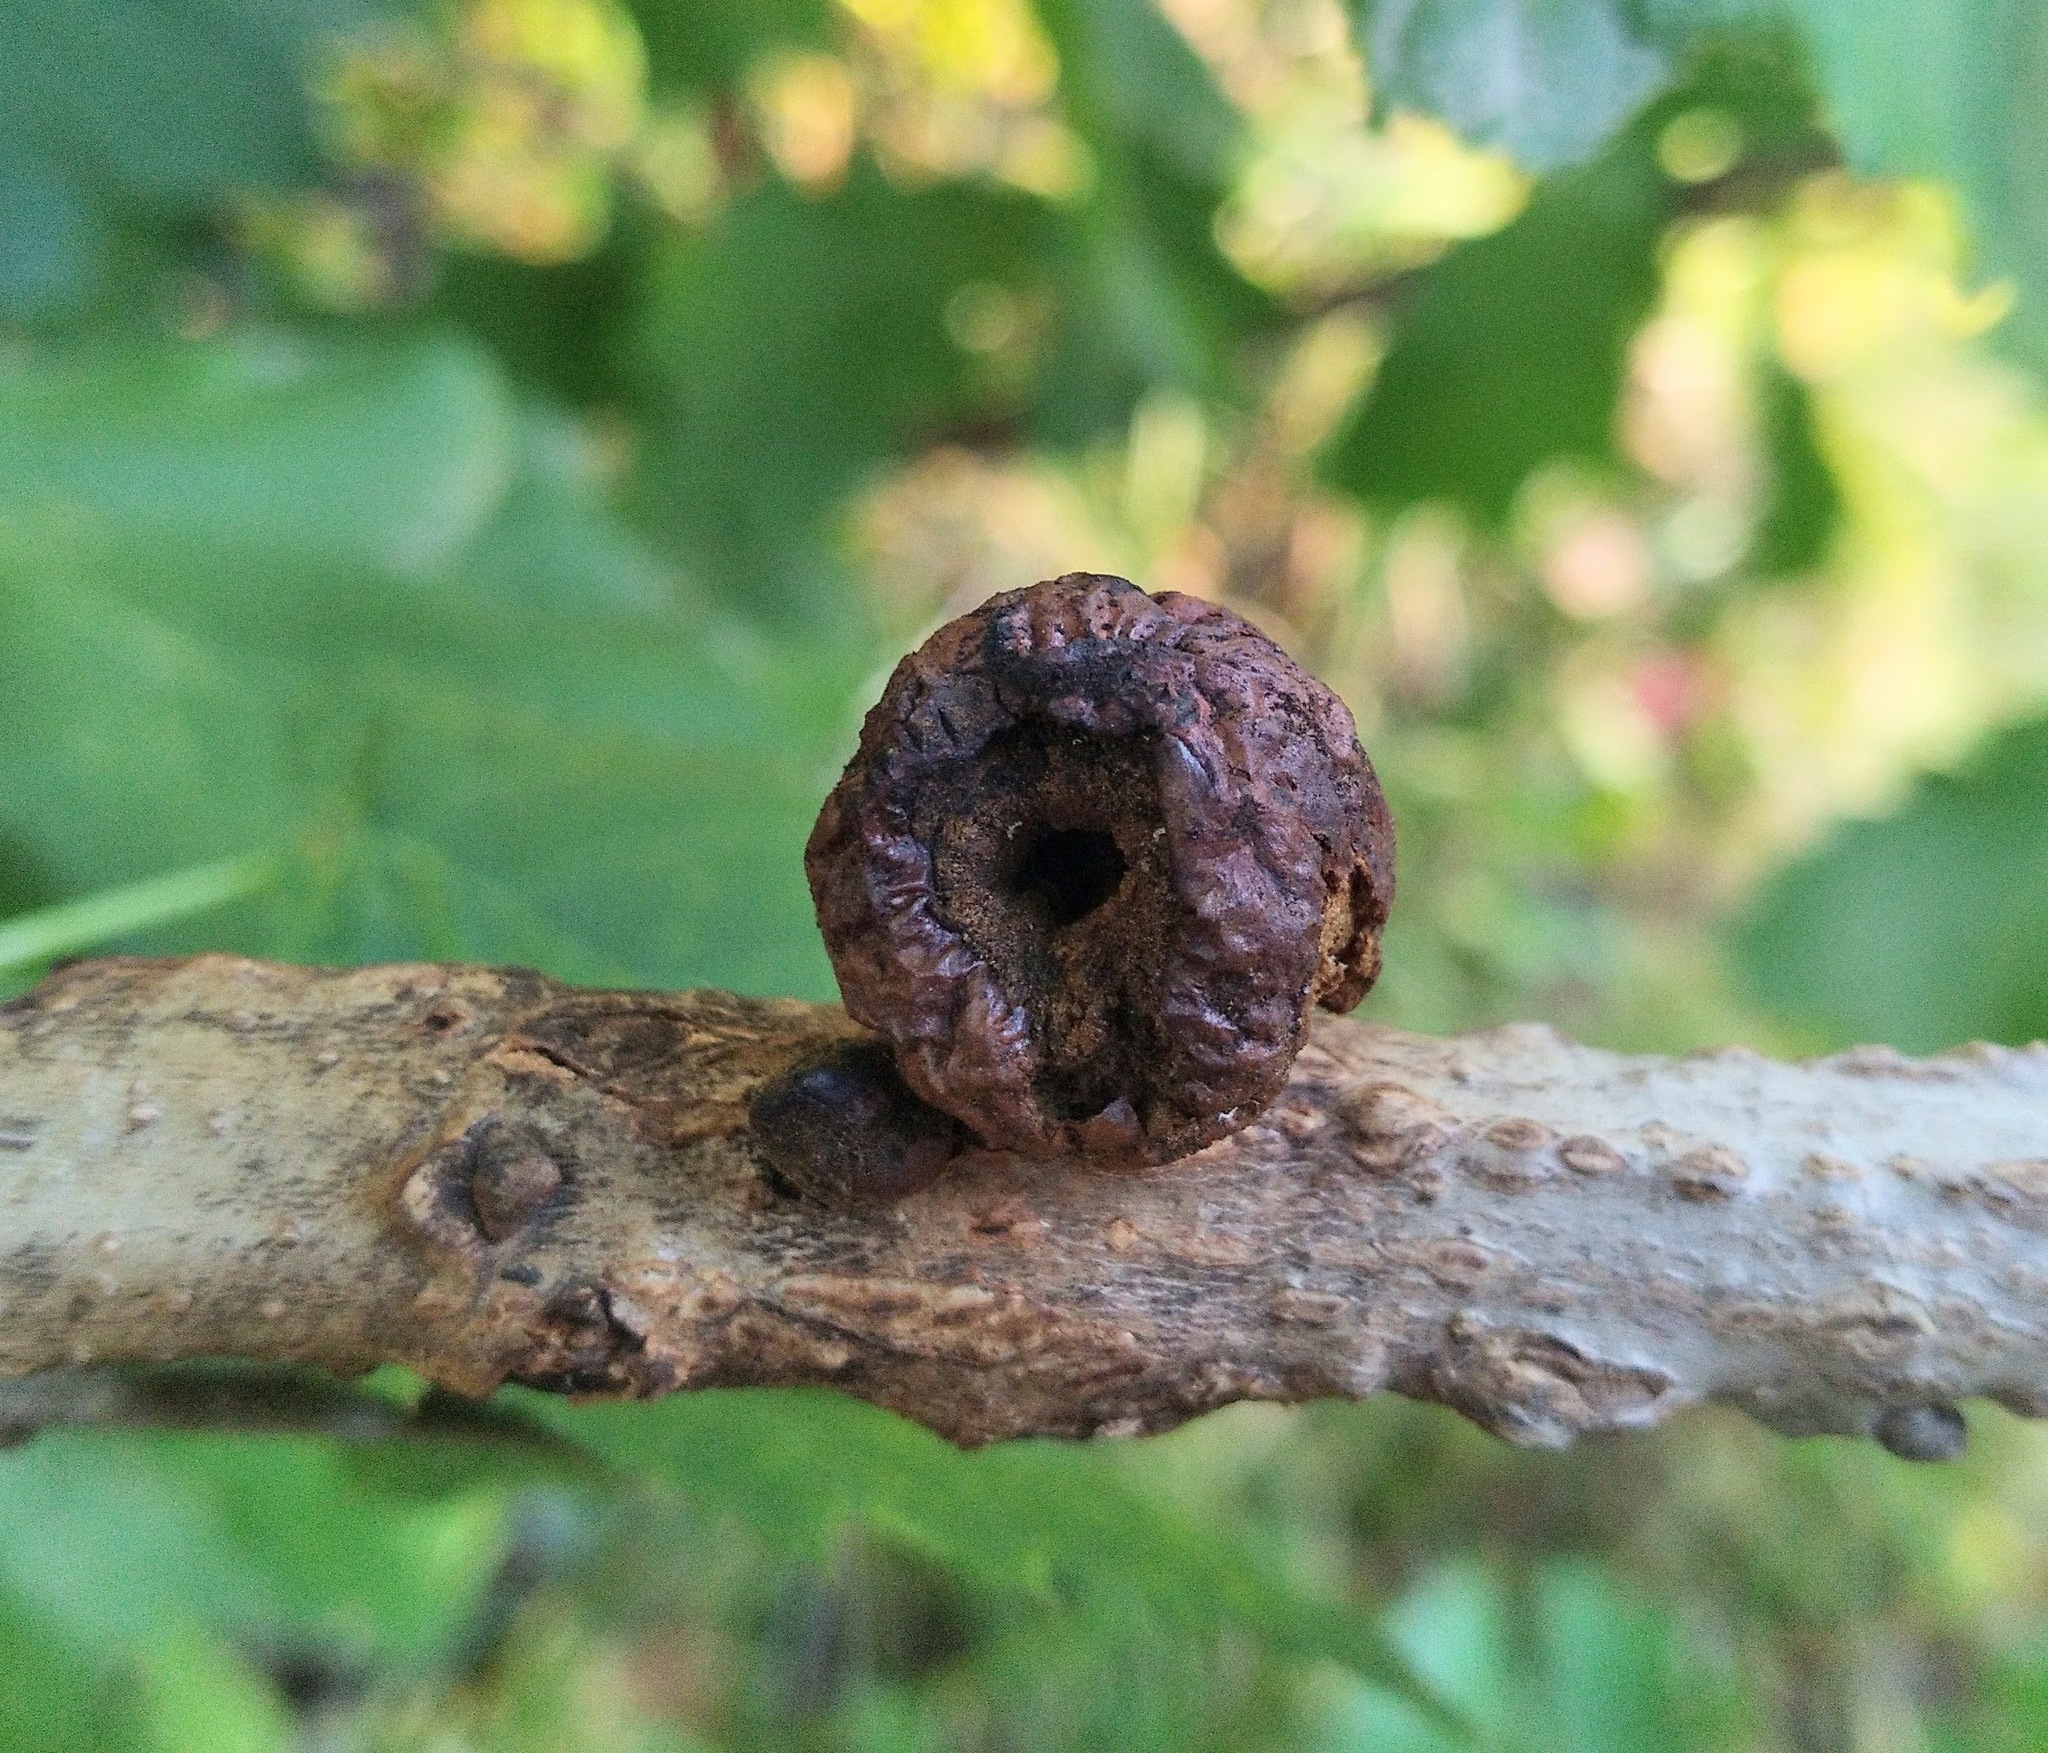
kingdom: Animalia
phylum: Arthropoda
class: Insecta
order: Hymenoptera
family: Cynipidae
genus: Disholcaspis
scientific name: Disholcaspis
